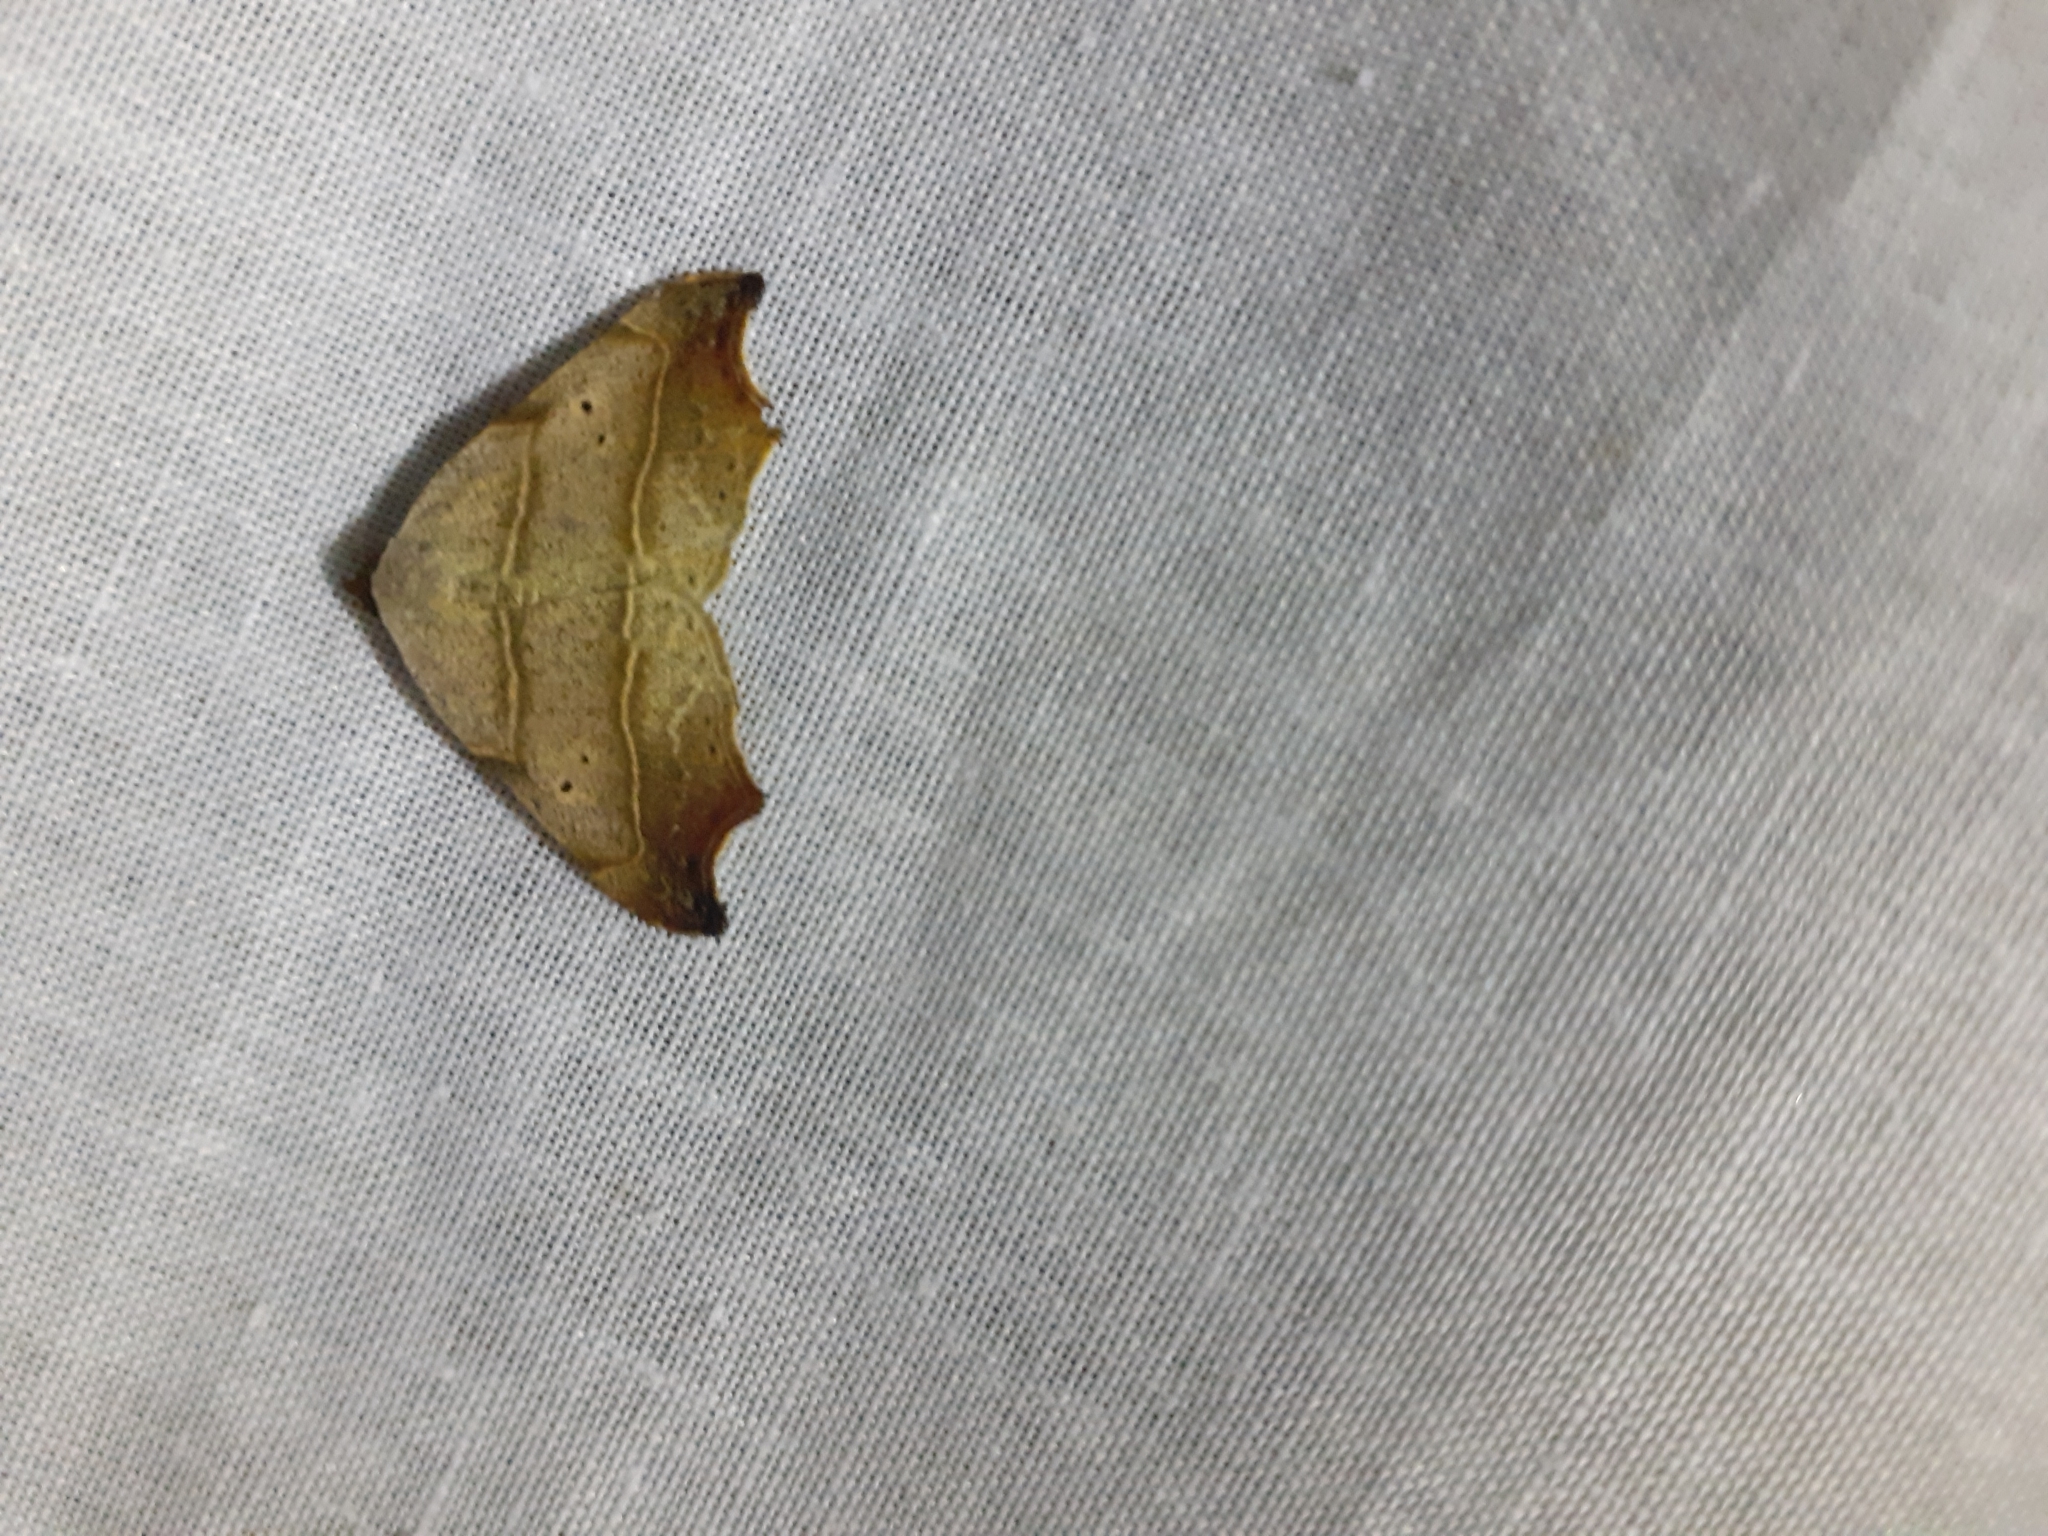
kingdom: Animalia
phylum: Arthropoda
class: Insecta
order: Lepidoptera
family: Erebidae
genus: Laspeyria
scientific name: Laspeyria flexula
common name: Beautiful hook-tip
